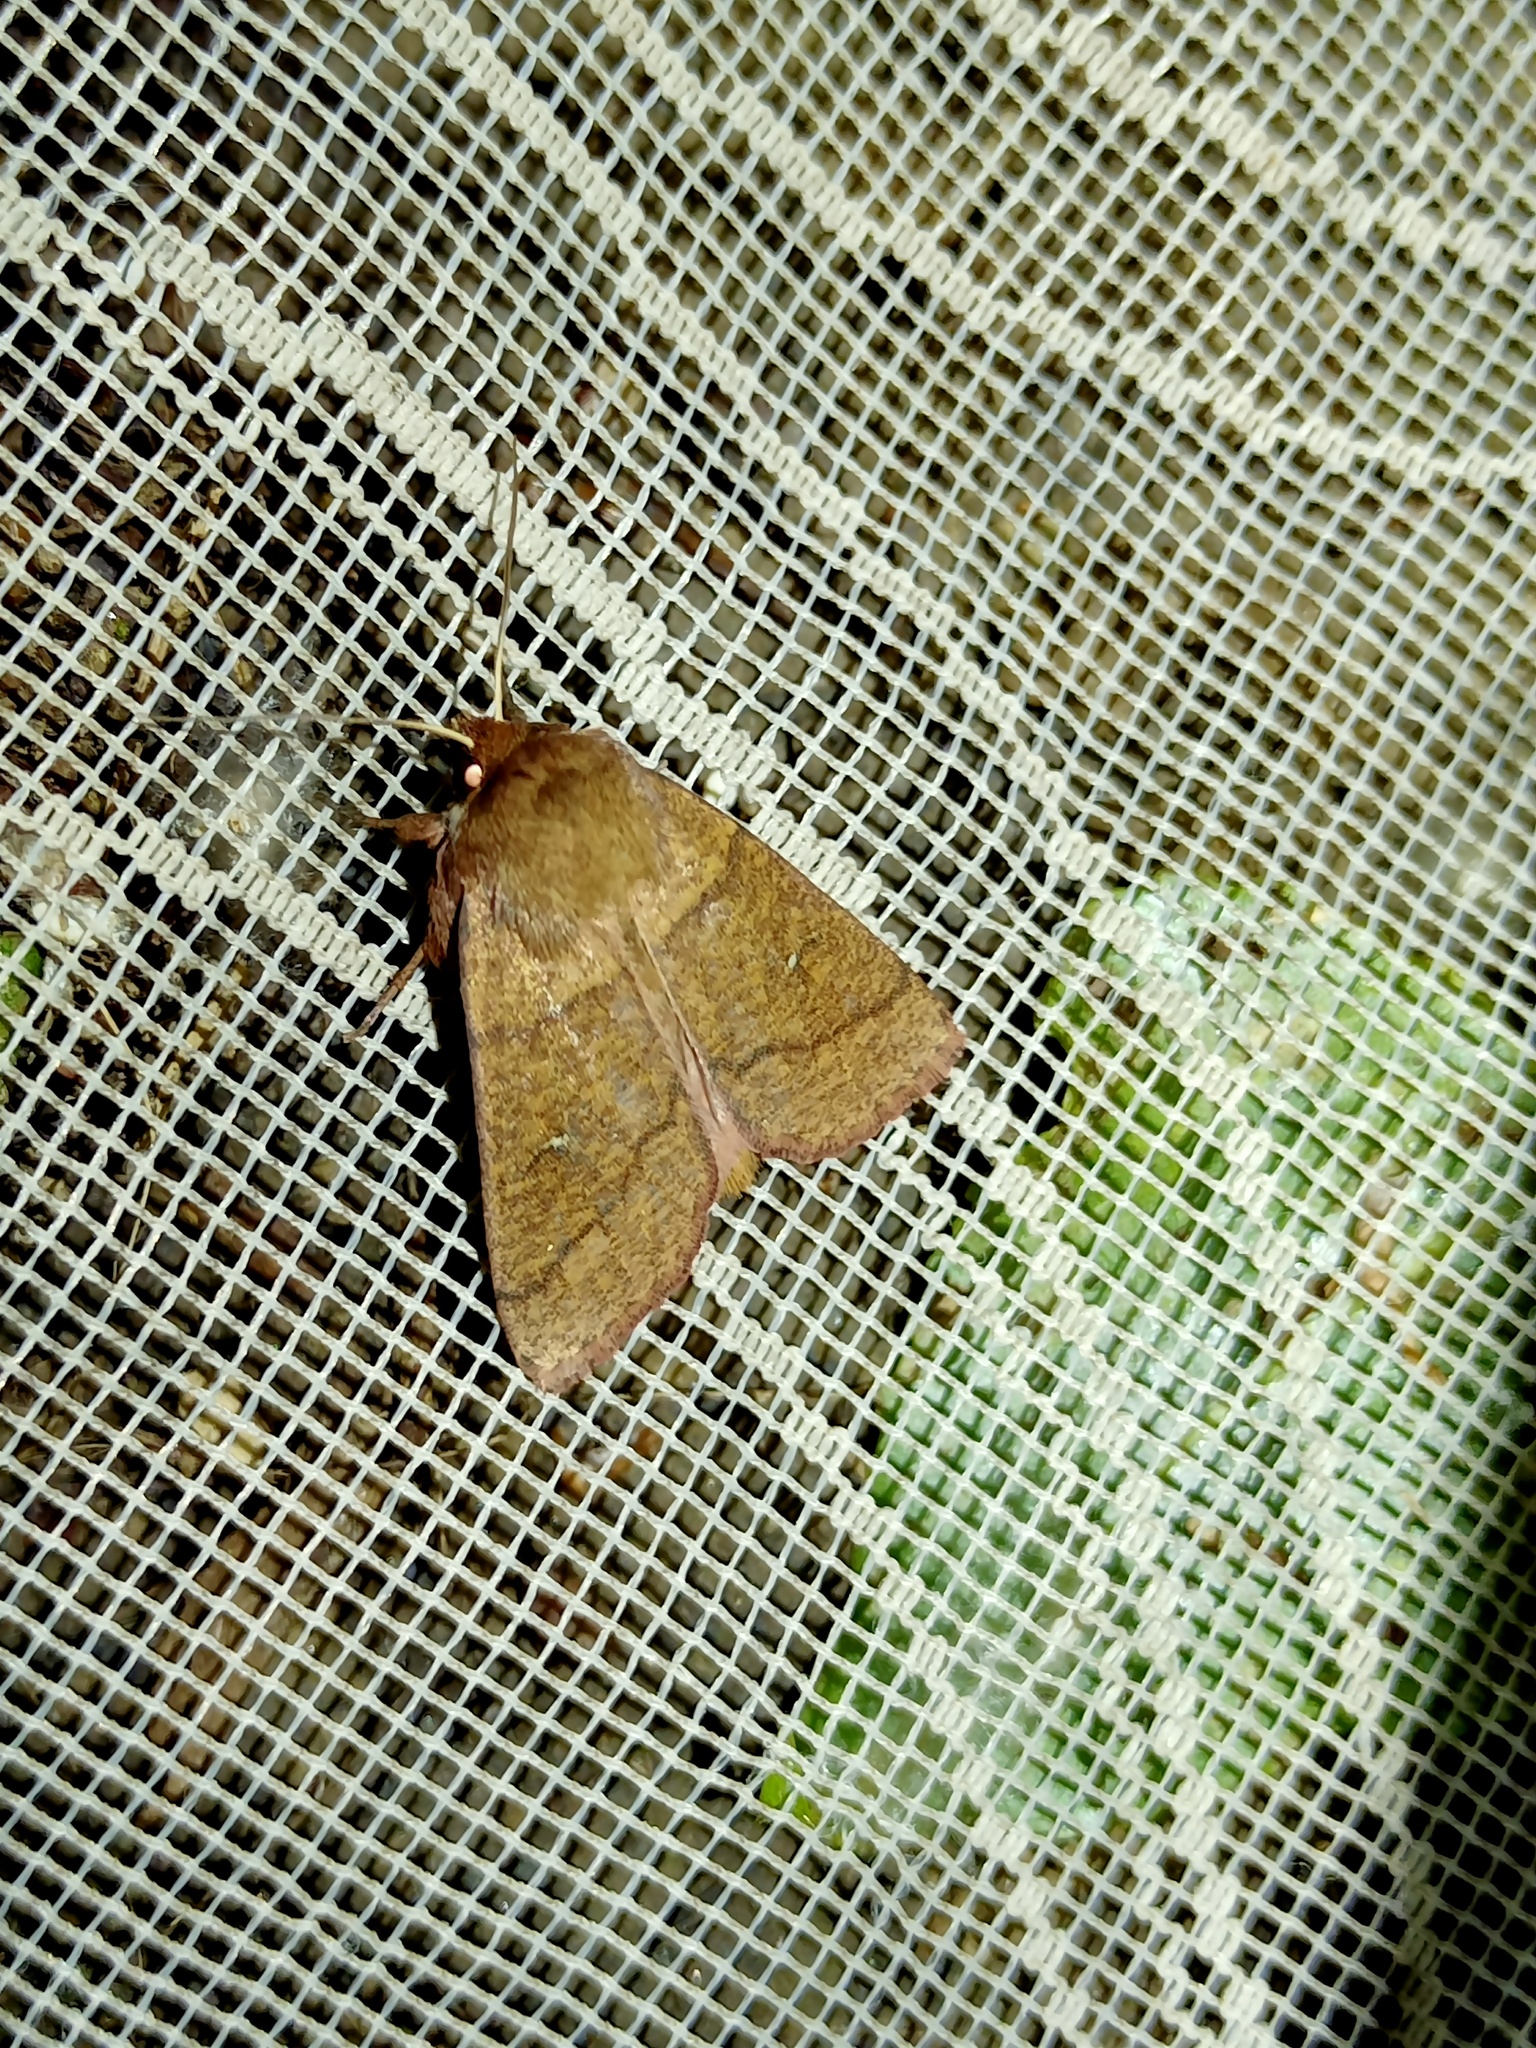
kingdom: Animalia
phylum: Arthropoda
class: Insecta
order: Lepidoptera
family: Noctuidae
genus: Mythimna
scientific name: Mythimna turca
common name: Double line
